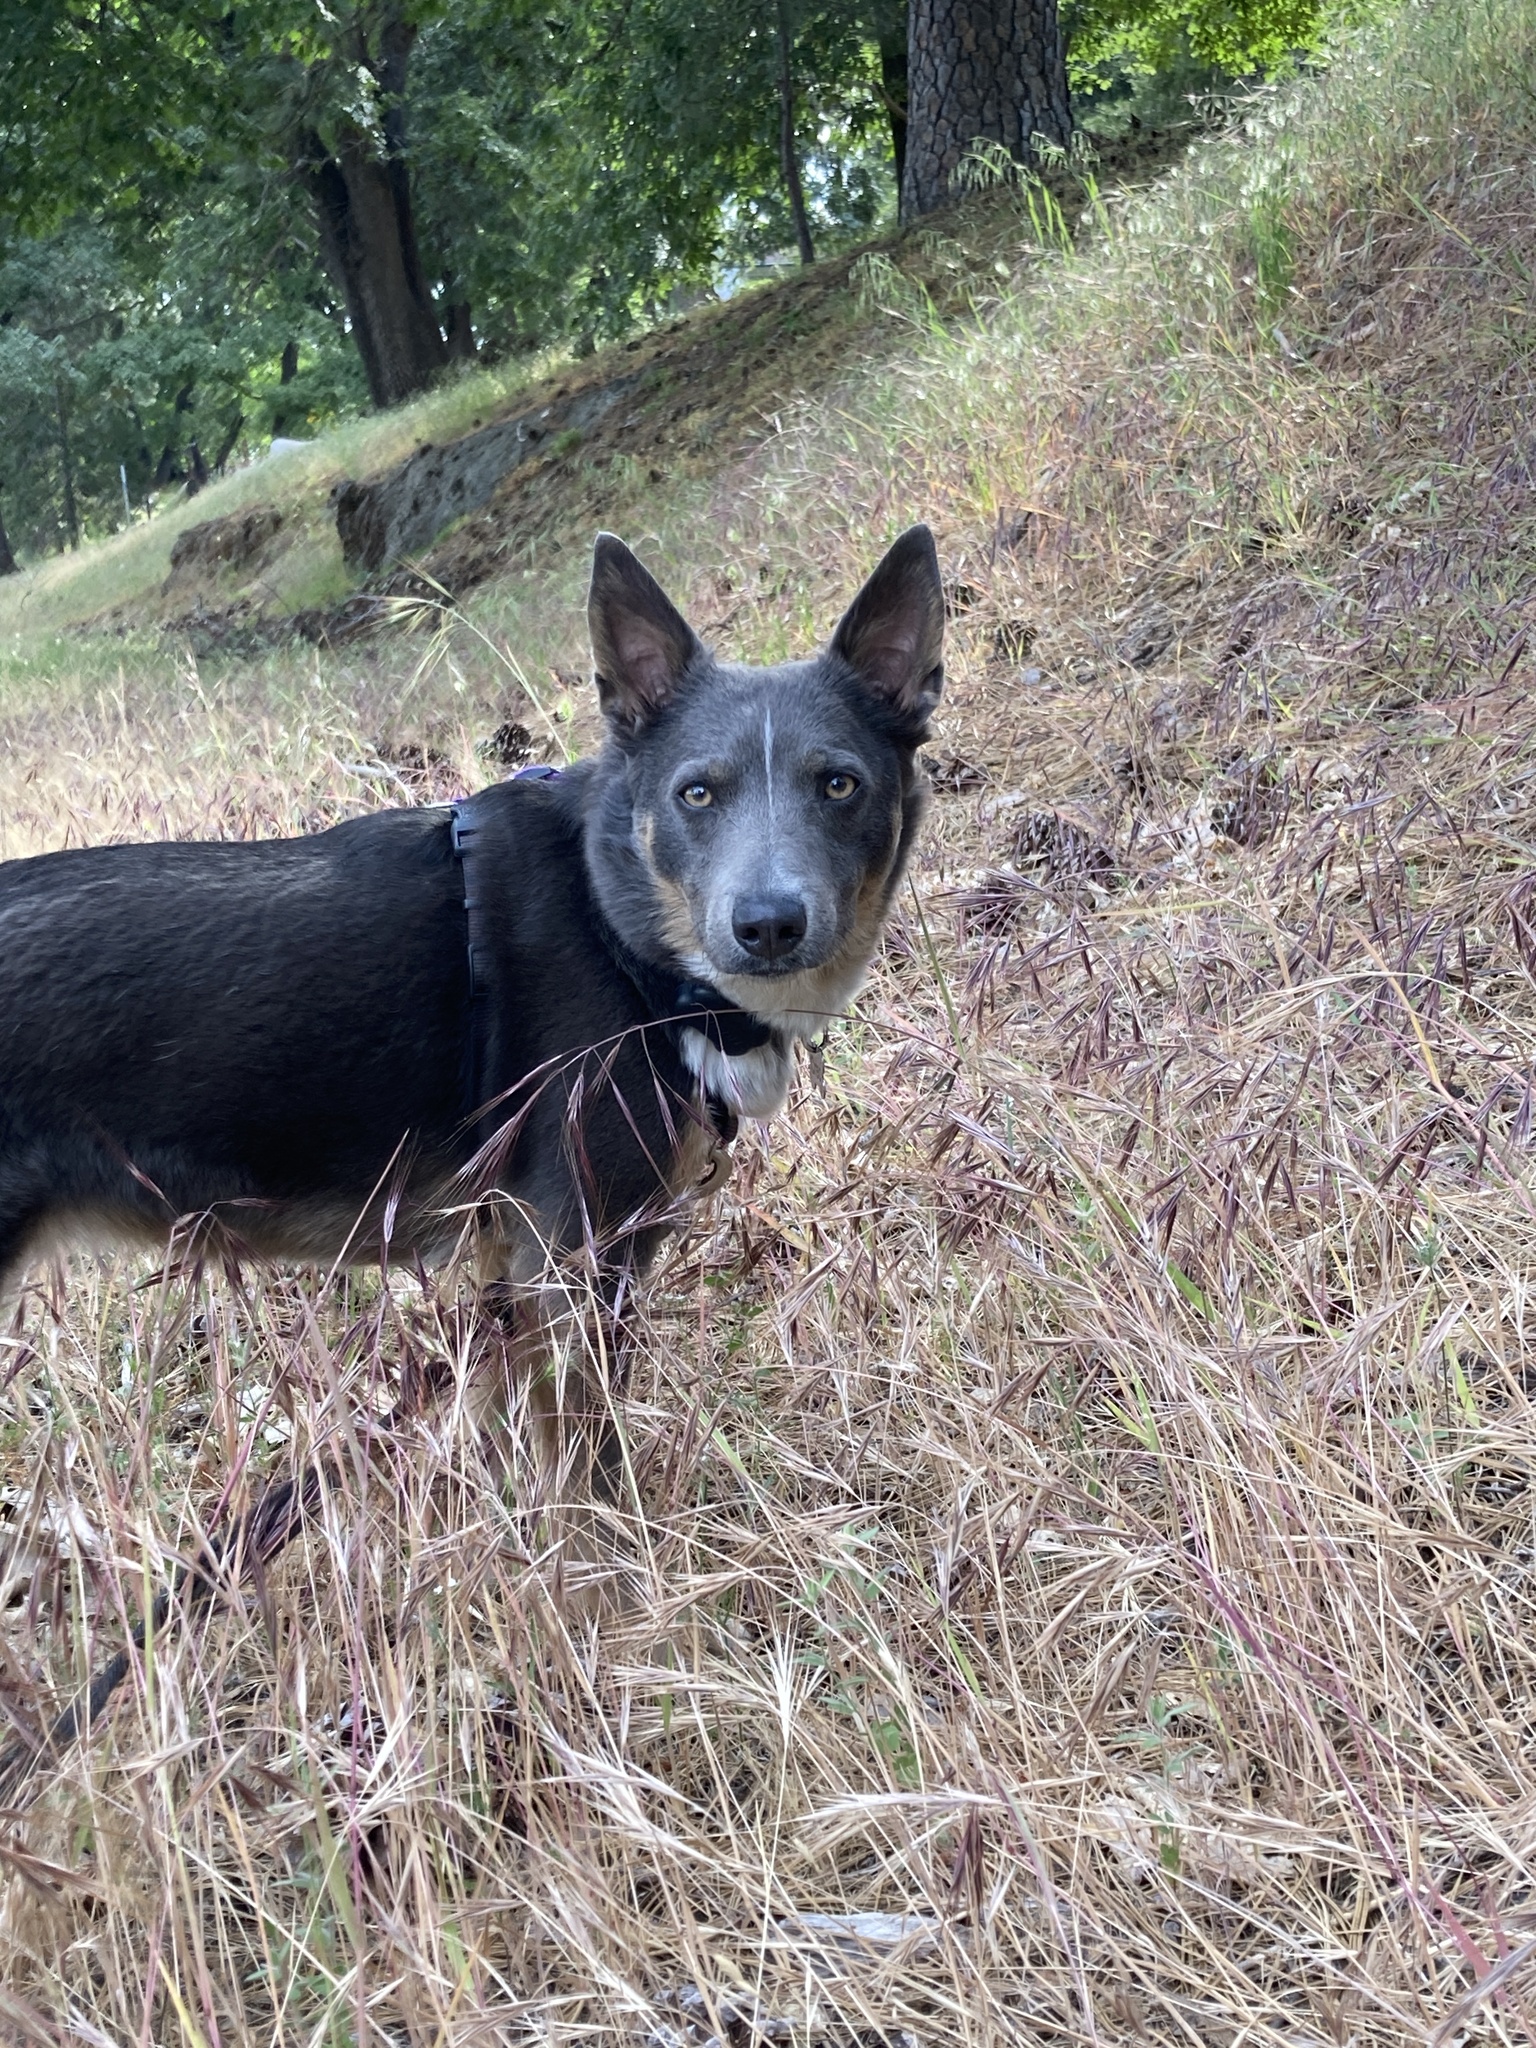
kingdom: Plantae
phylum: Tracheophyta
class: Liliopsida
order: Poales
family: Poaceae
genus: Bromus
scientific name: Bromus diandrus
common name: Ripgut brome
